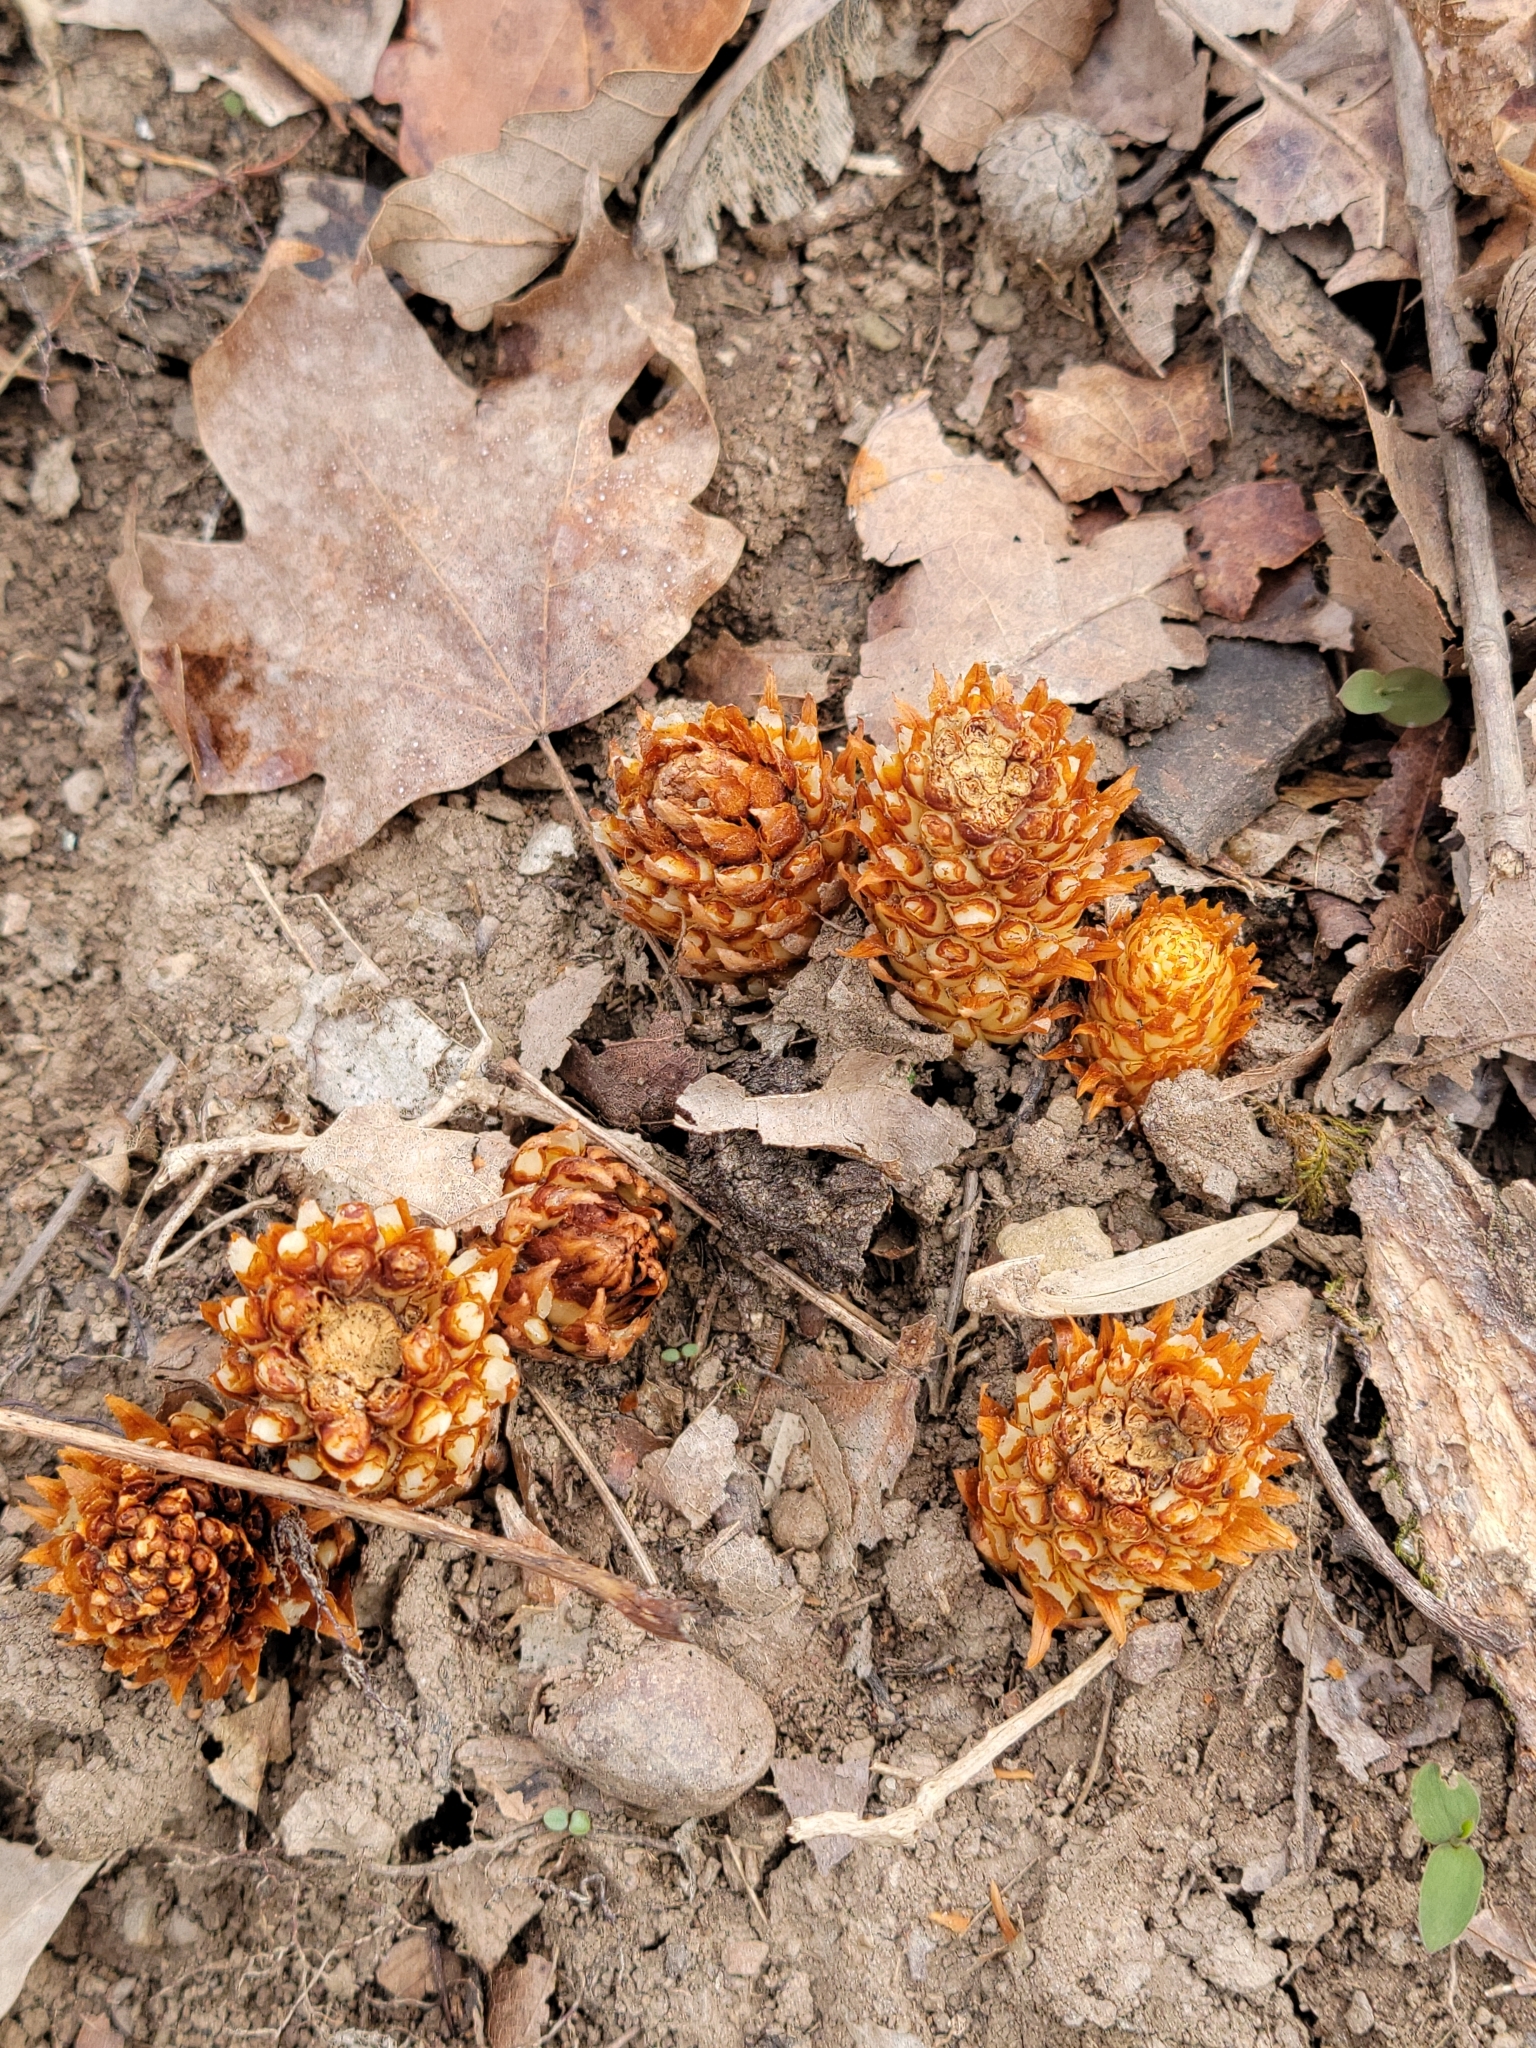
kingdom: Plantae
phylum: Tracheophyta
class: Magnoliopsida
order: Lamiales
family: Orobanchaceae
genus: Conopholis
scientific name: Conopholis americana
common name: American cancer-root
